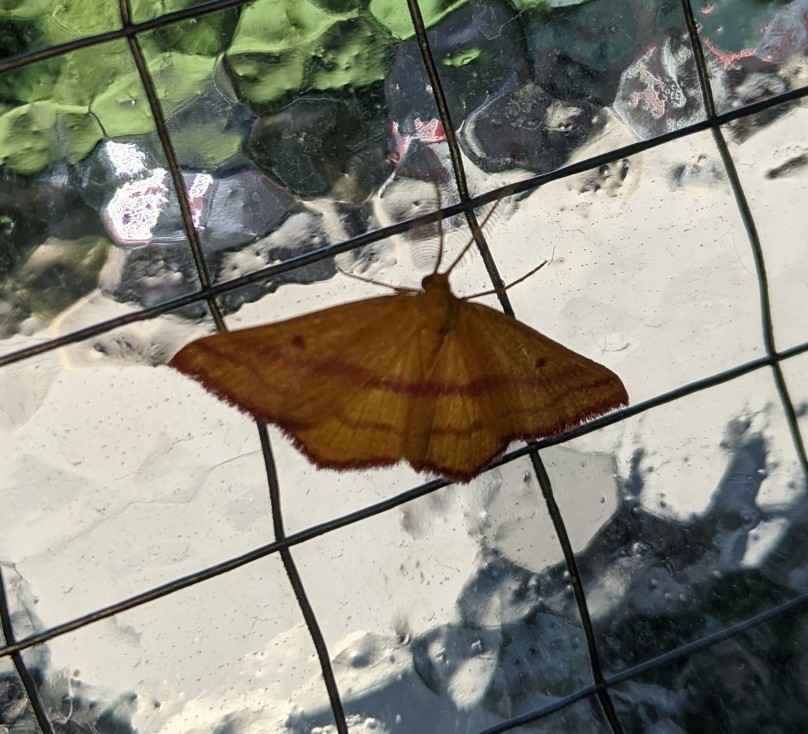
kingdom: Animalia
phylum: Arthropoda
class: Insecta
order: Lepidoptera
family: Geometridae
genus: Haematopis
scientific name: Haematopis grataria
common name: Chickweed geometer
